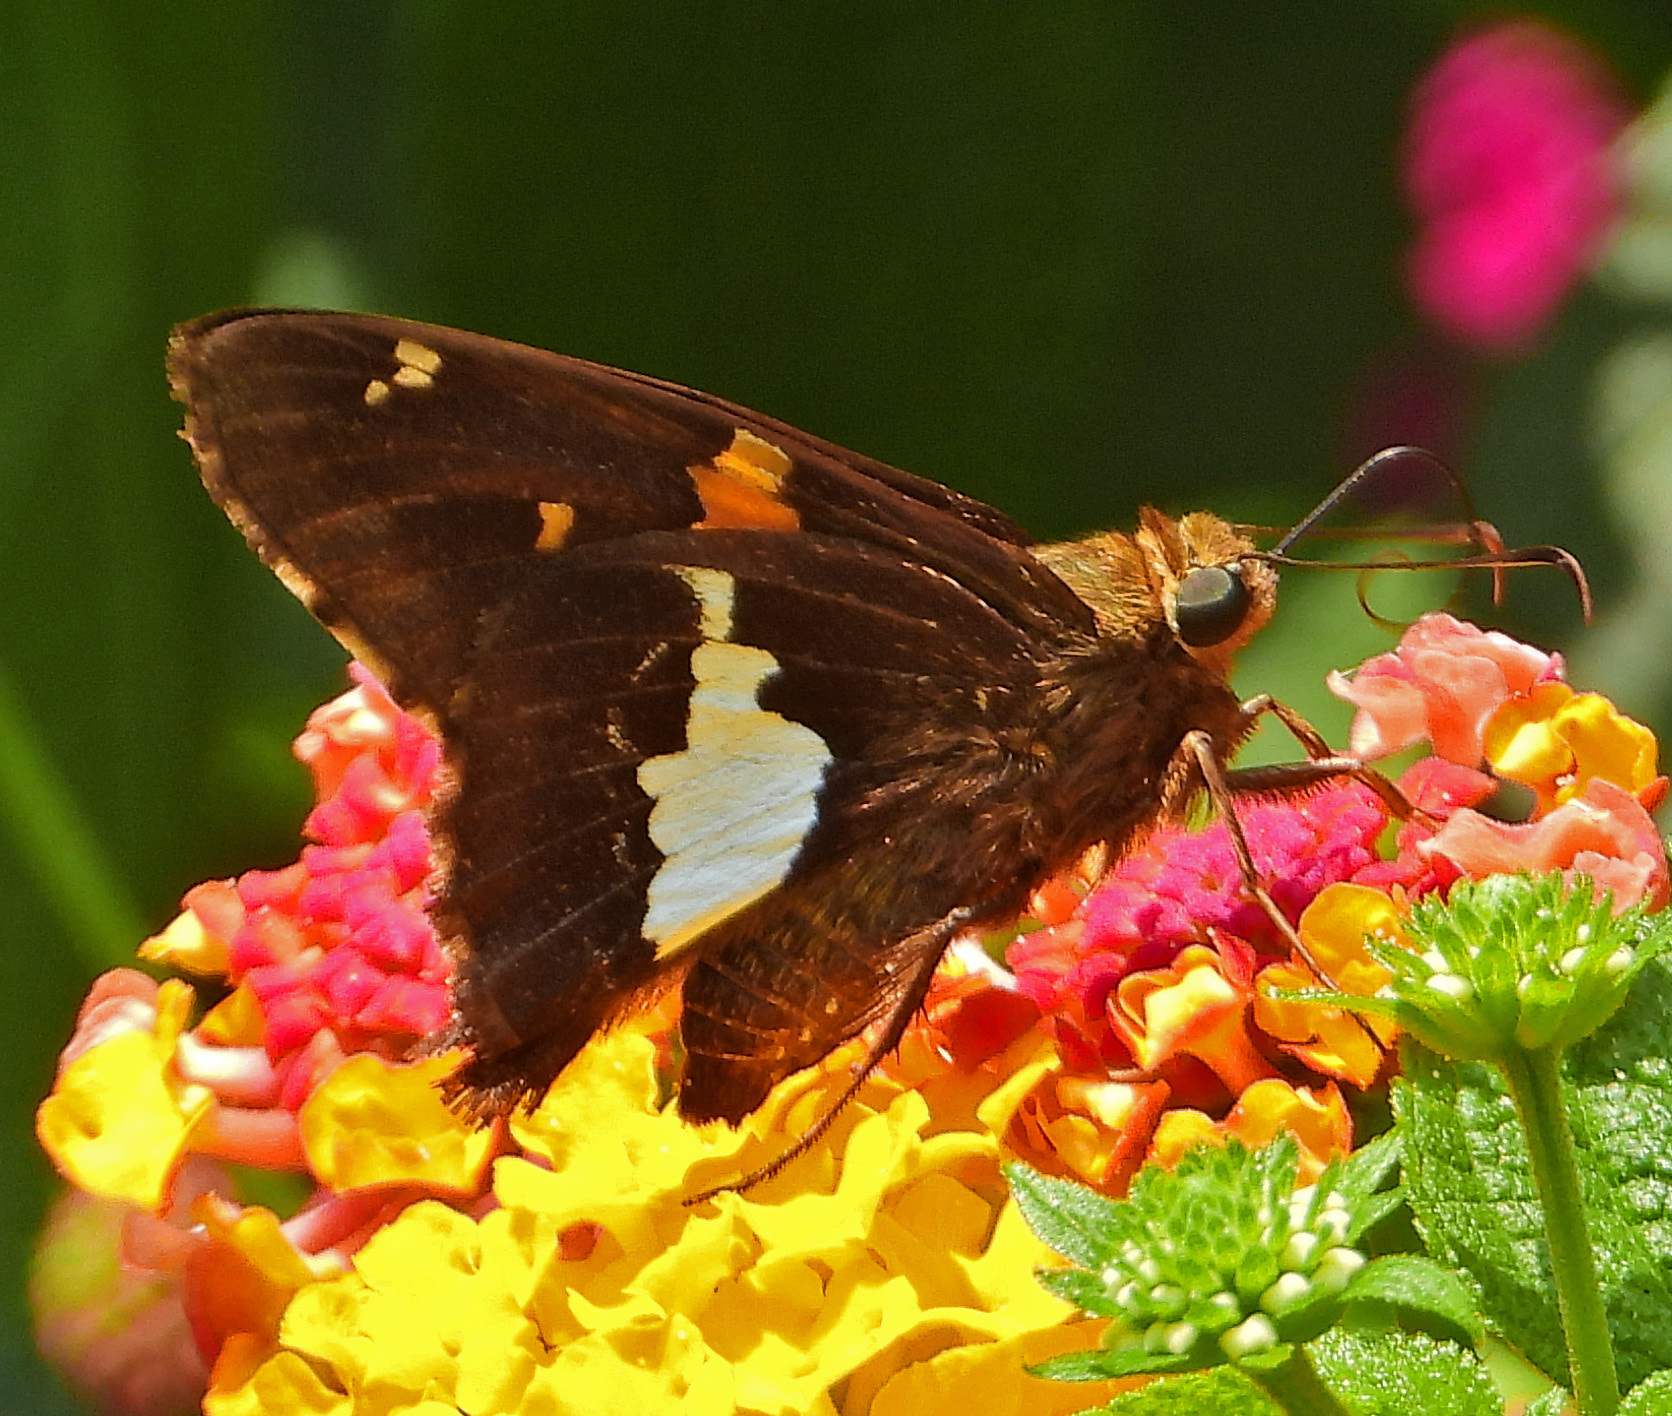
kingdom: Animalia
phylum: Arthropoda
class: Insecta
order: Lepidoptera
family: Hesperiidae
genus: Epargyreus
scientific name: Epargyreus clarus
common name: Silver-spotted skipper
